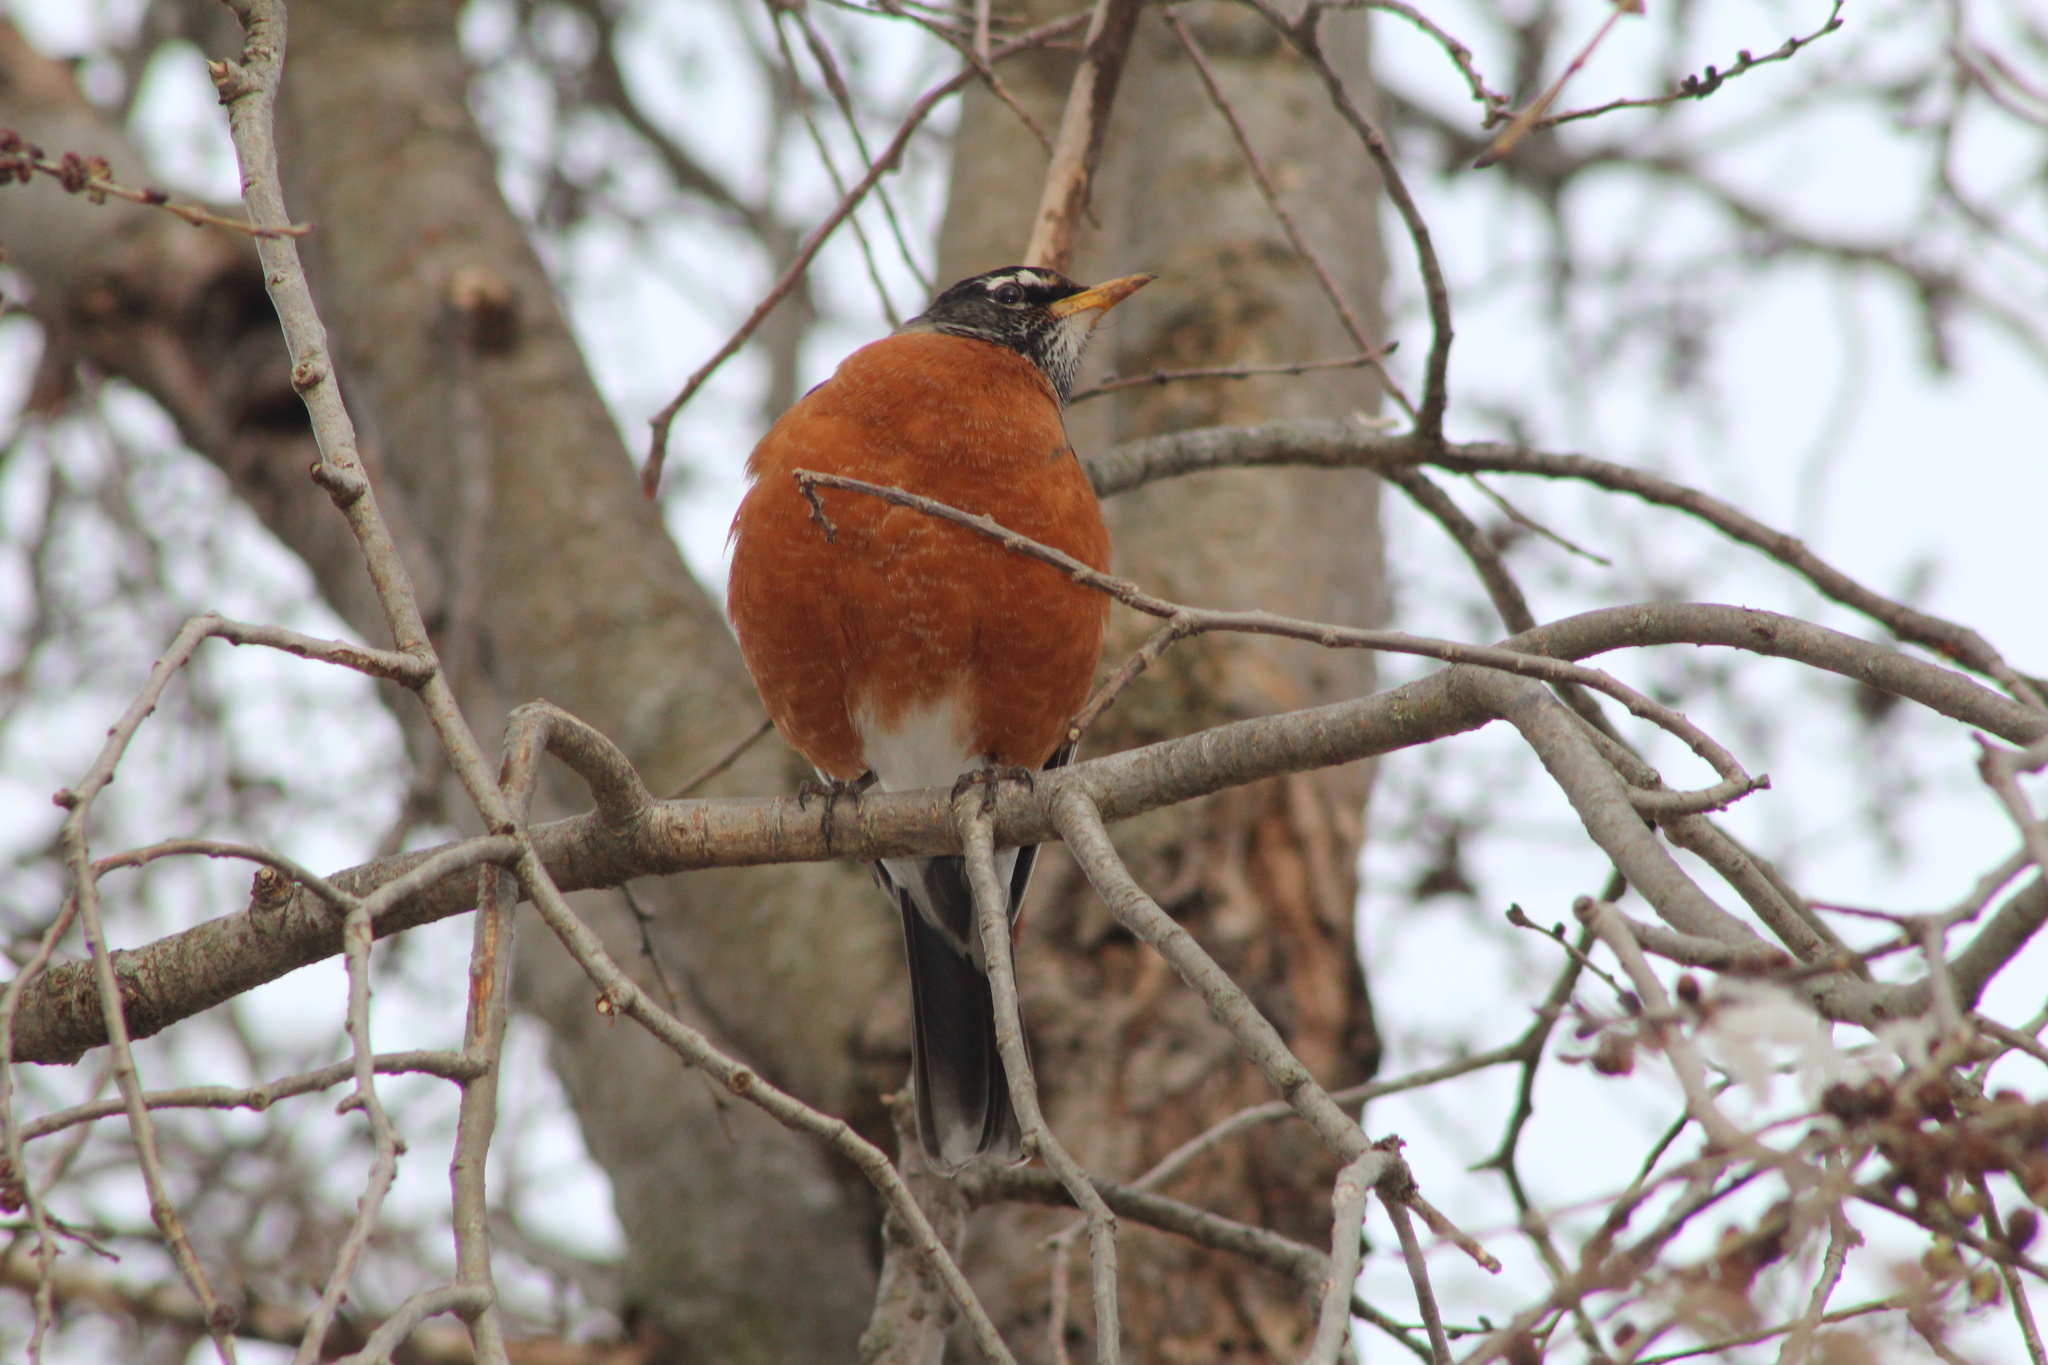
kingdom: Animalia
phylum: Chordata
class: Aves
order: Passeriformes
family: Turdidae
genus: Turdus
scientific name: Turdus migratorius
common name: American robin
